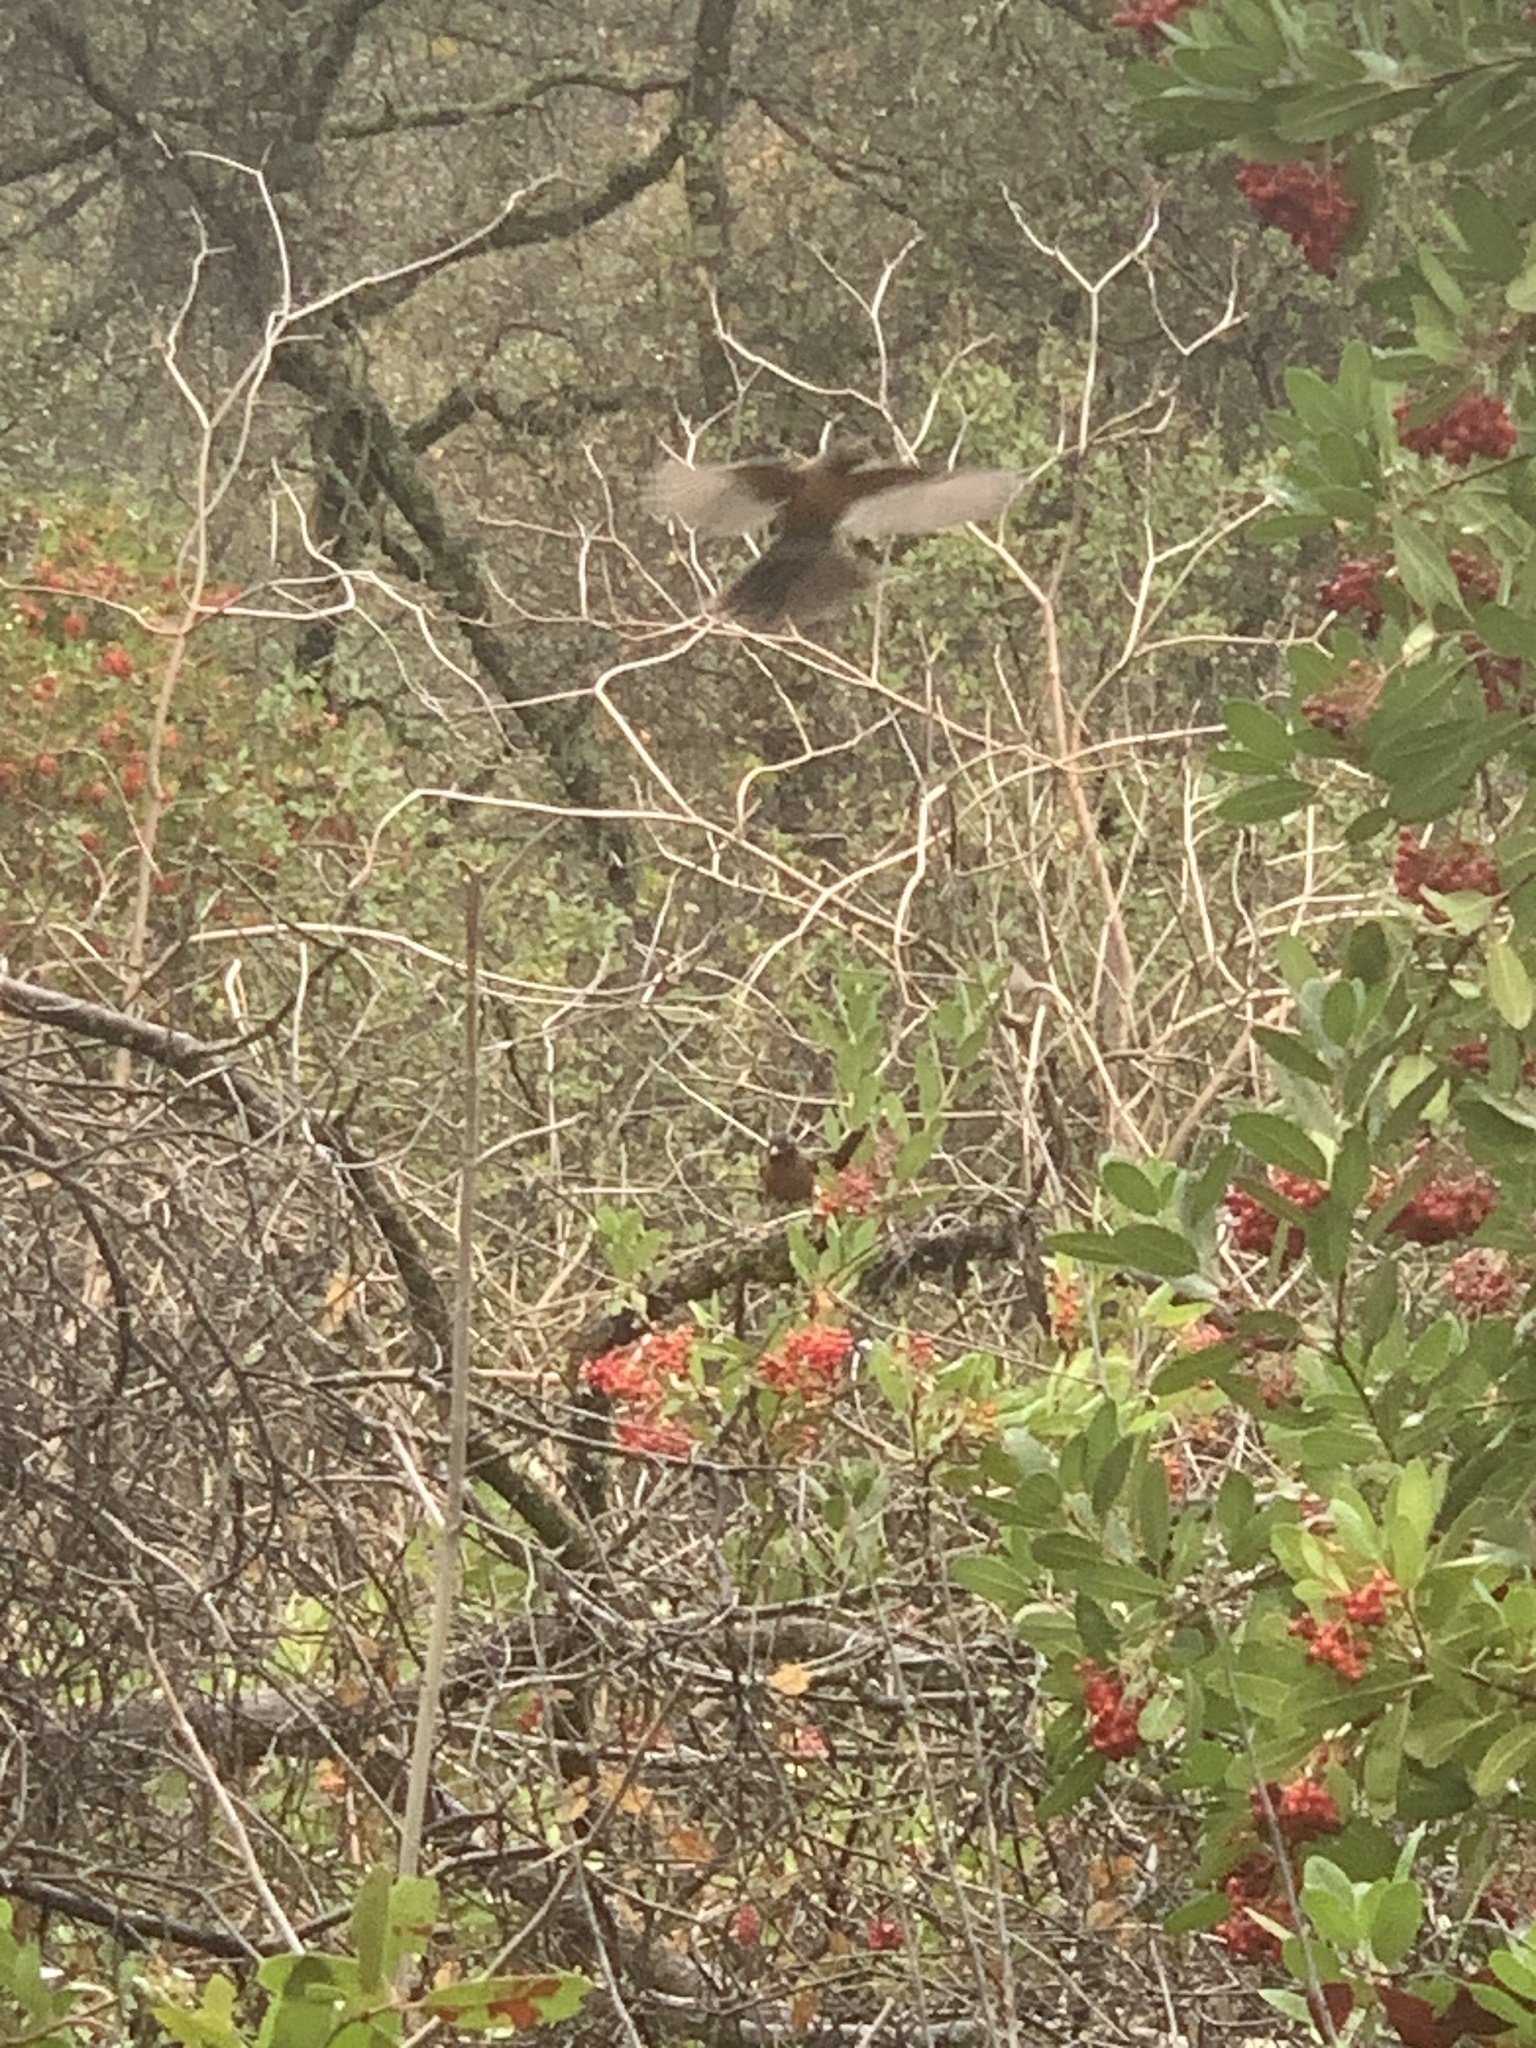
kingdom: Animalia
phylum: Chordata
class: Aves
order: Passeriformes
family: Turdidae
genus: Turdus
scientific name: Turdus migratorius
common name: American robin
